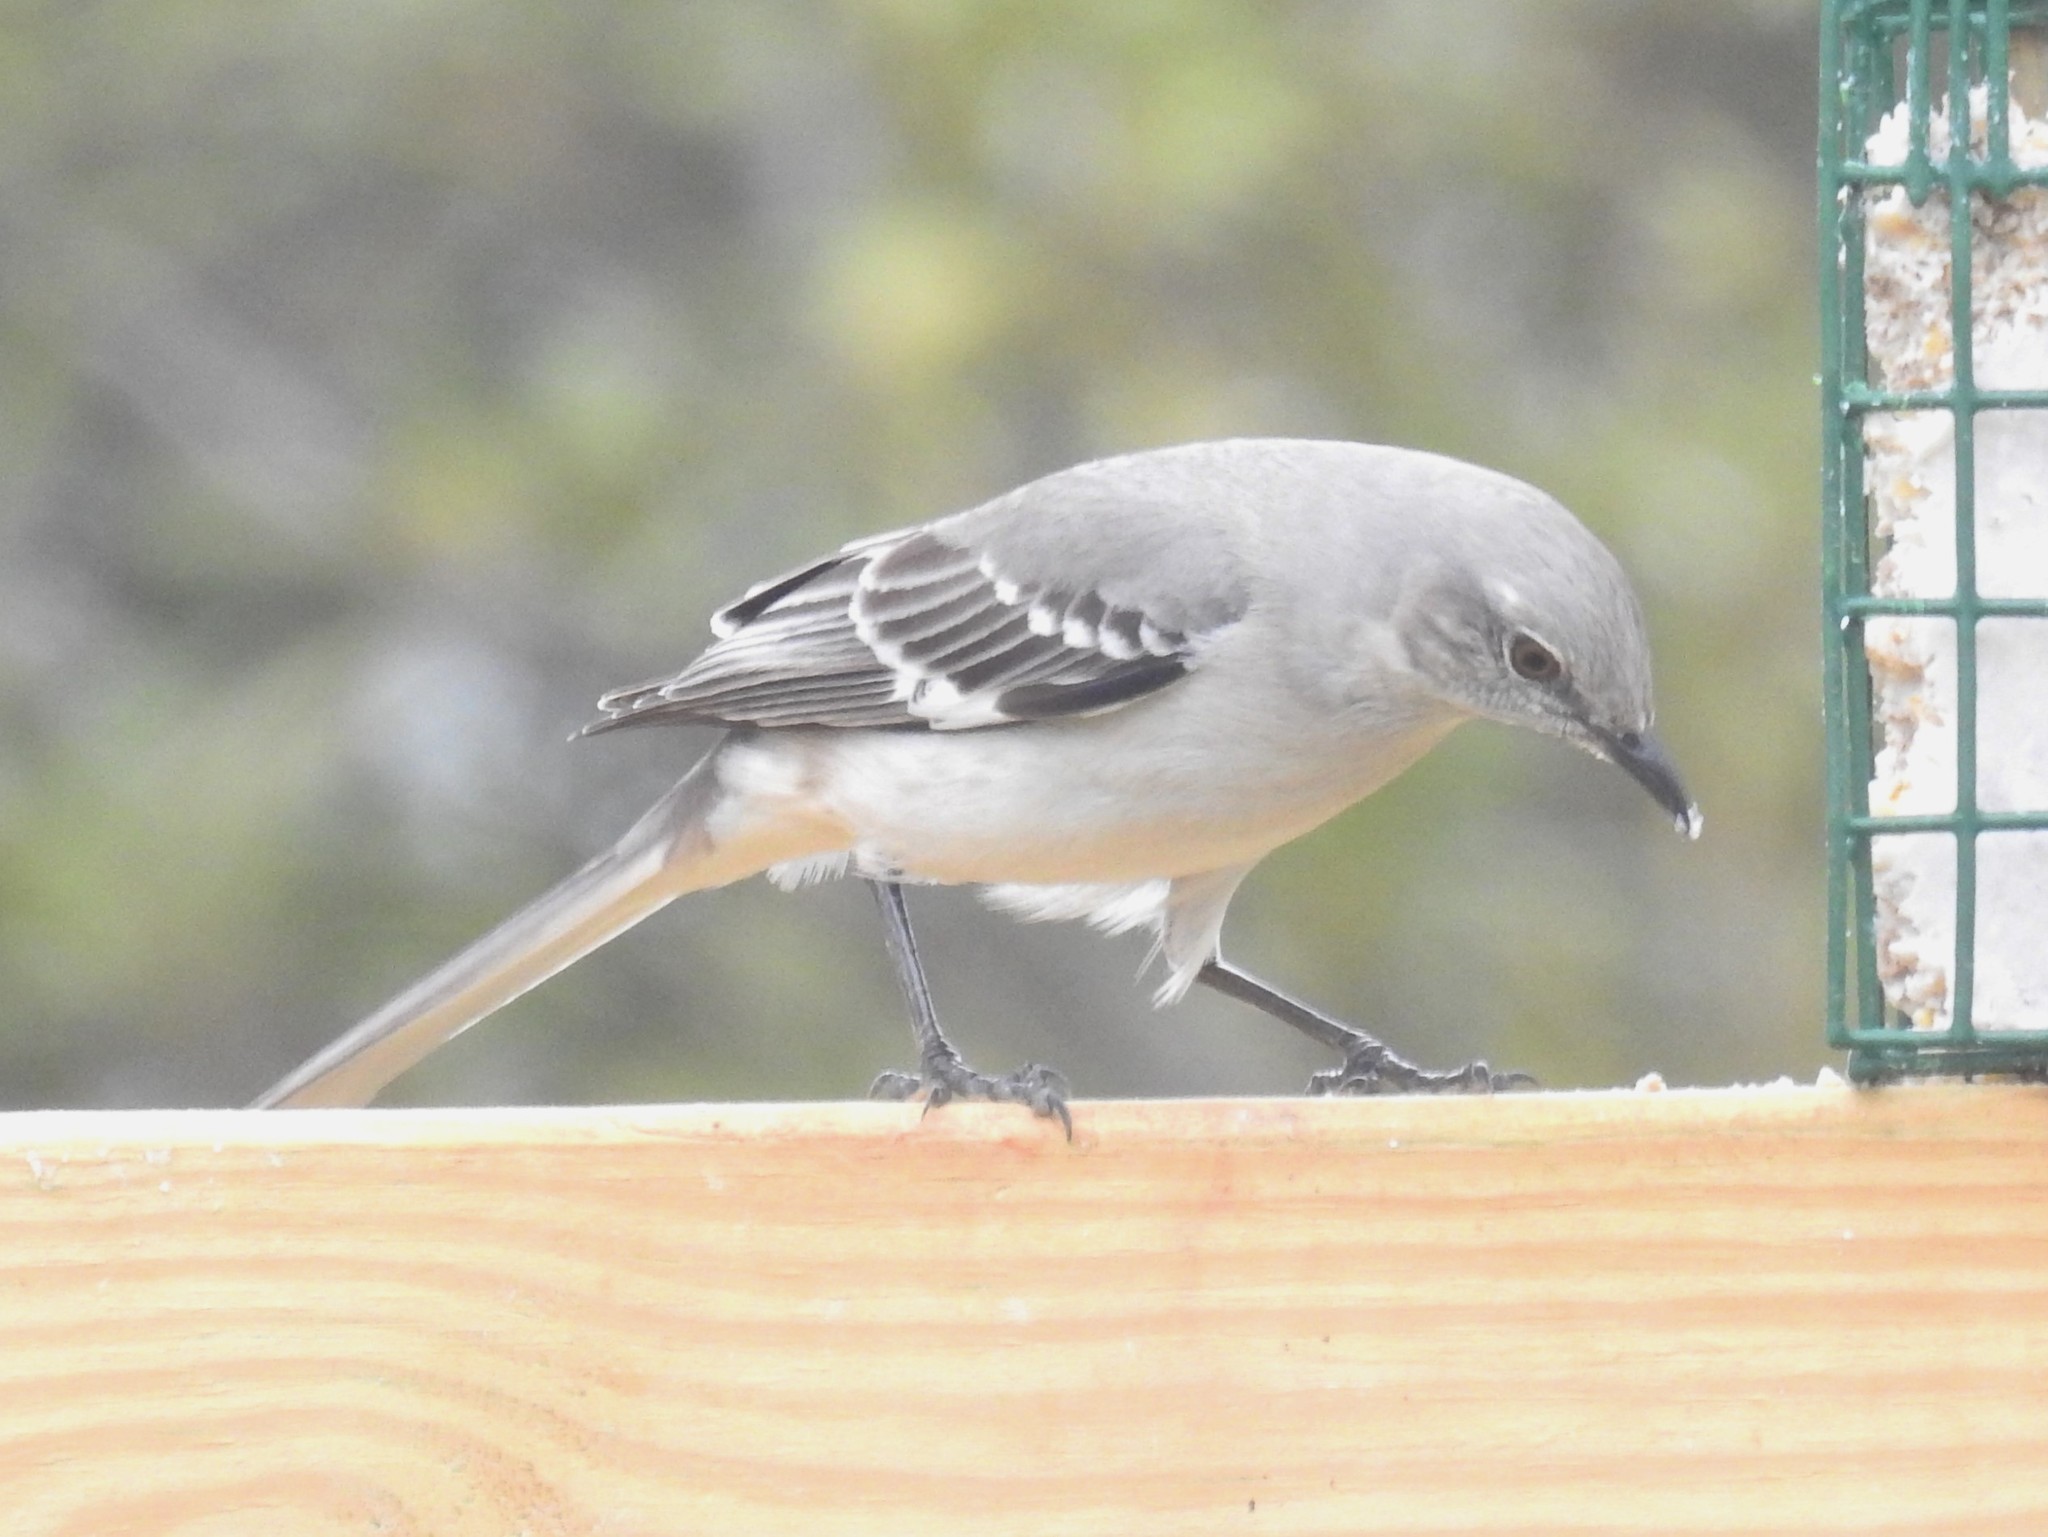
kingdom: Animalia
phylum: Chordata
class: Aves
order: Passeriformes
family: Mimidae
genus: Mimus
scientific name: Mimus polyglottos
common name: Northern mockingbird
